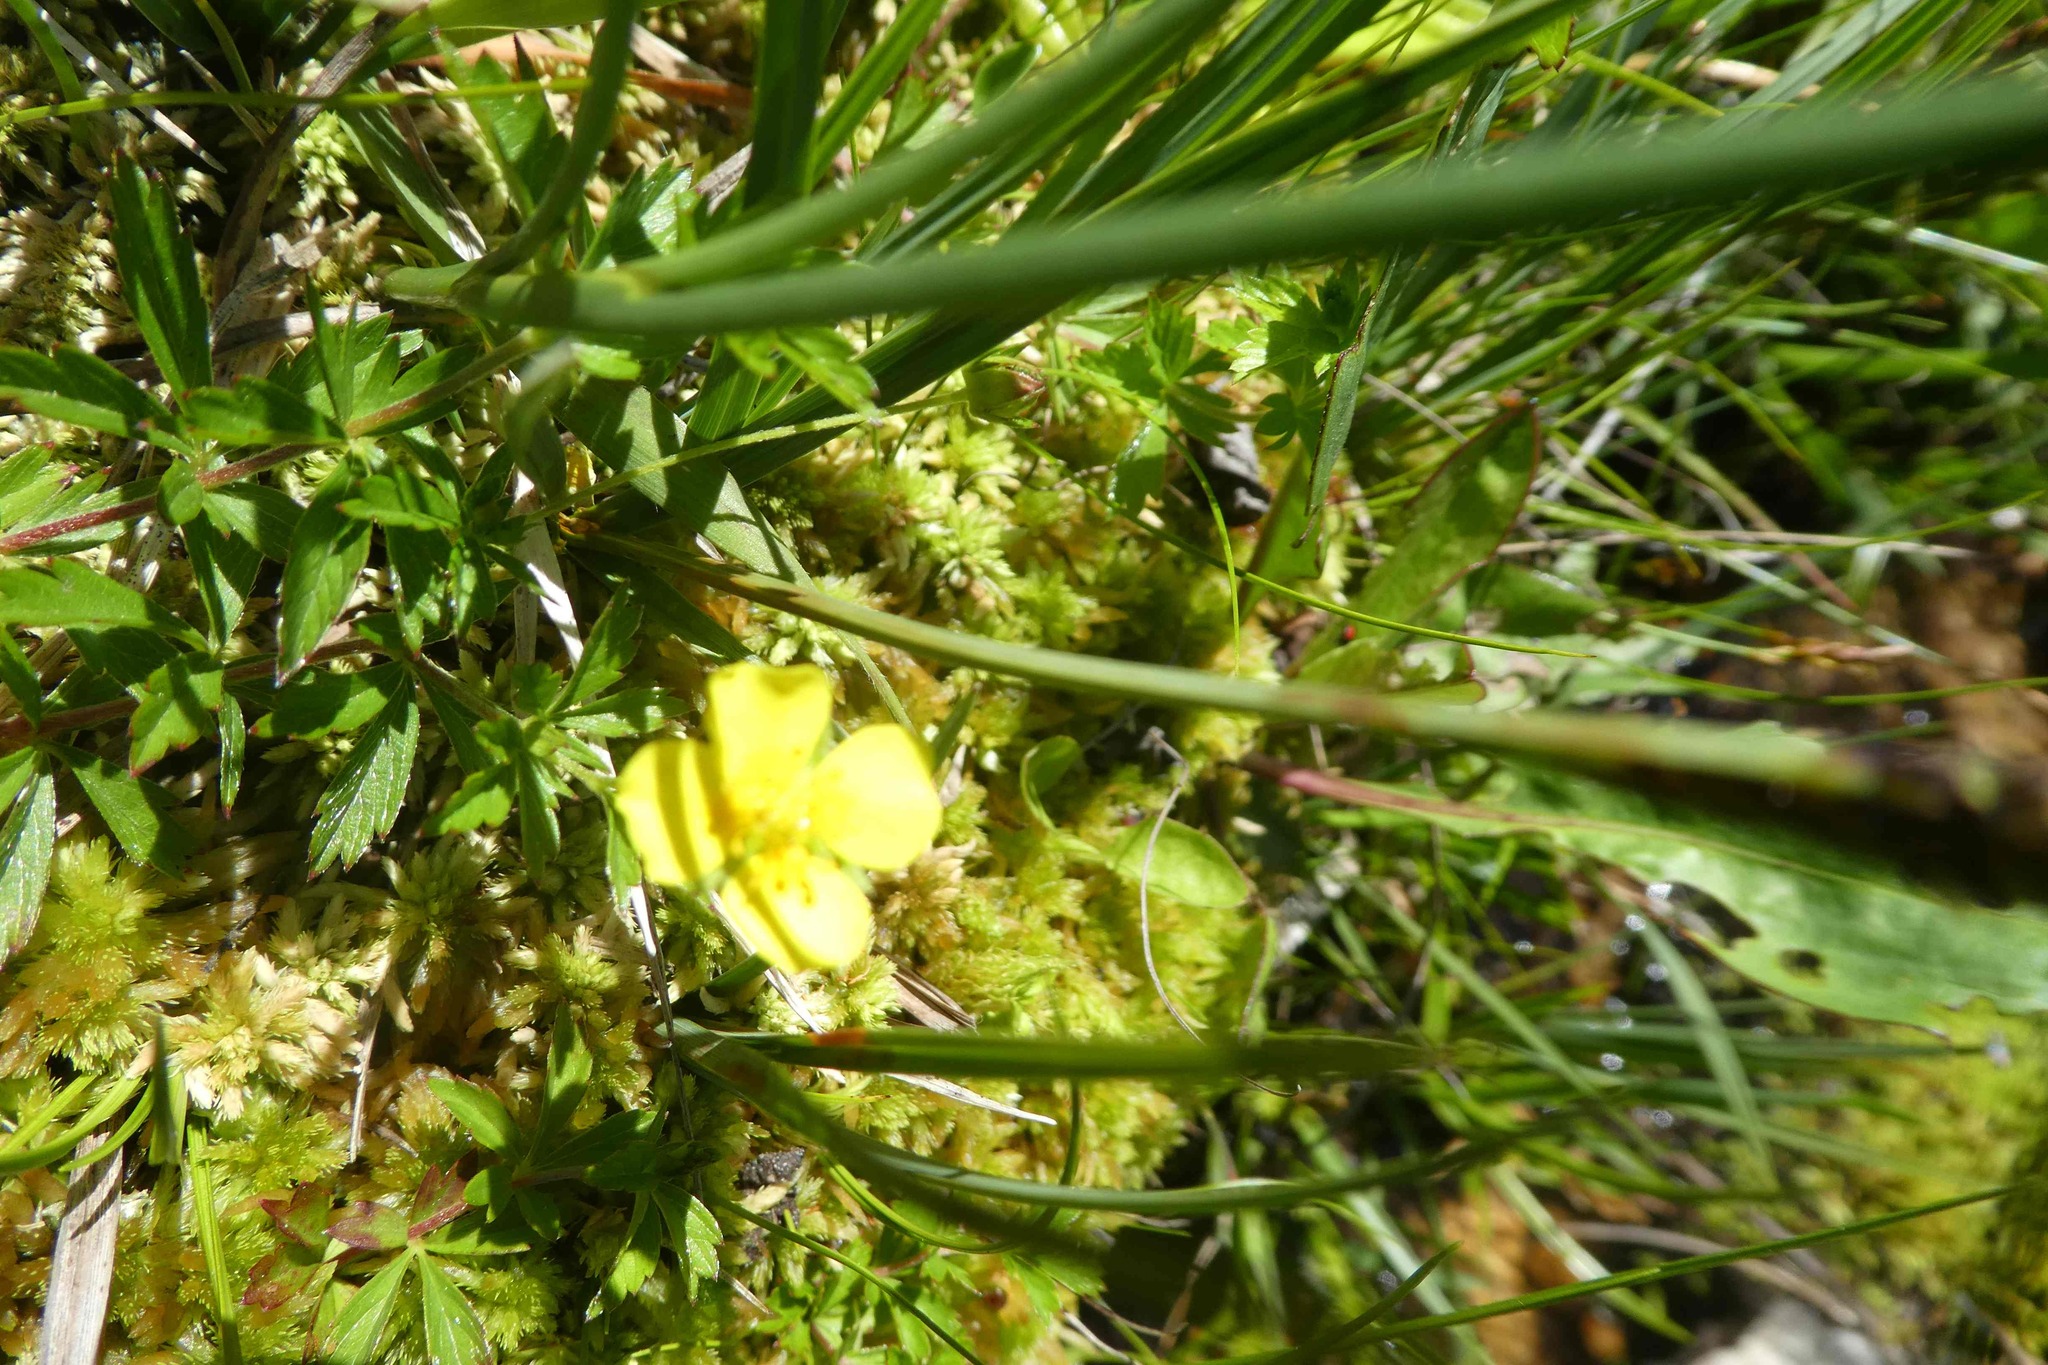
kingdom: Plantae
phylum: Tracheophyta
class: Magnoliopsida
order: Rosales
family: Rosaceae
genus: Potentilla
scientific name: Potentilla erecta
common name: Tormentil
